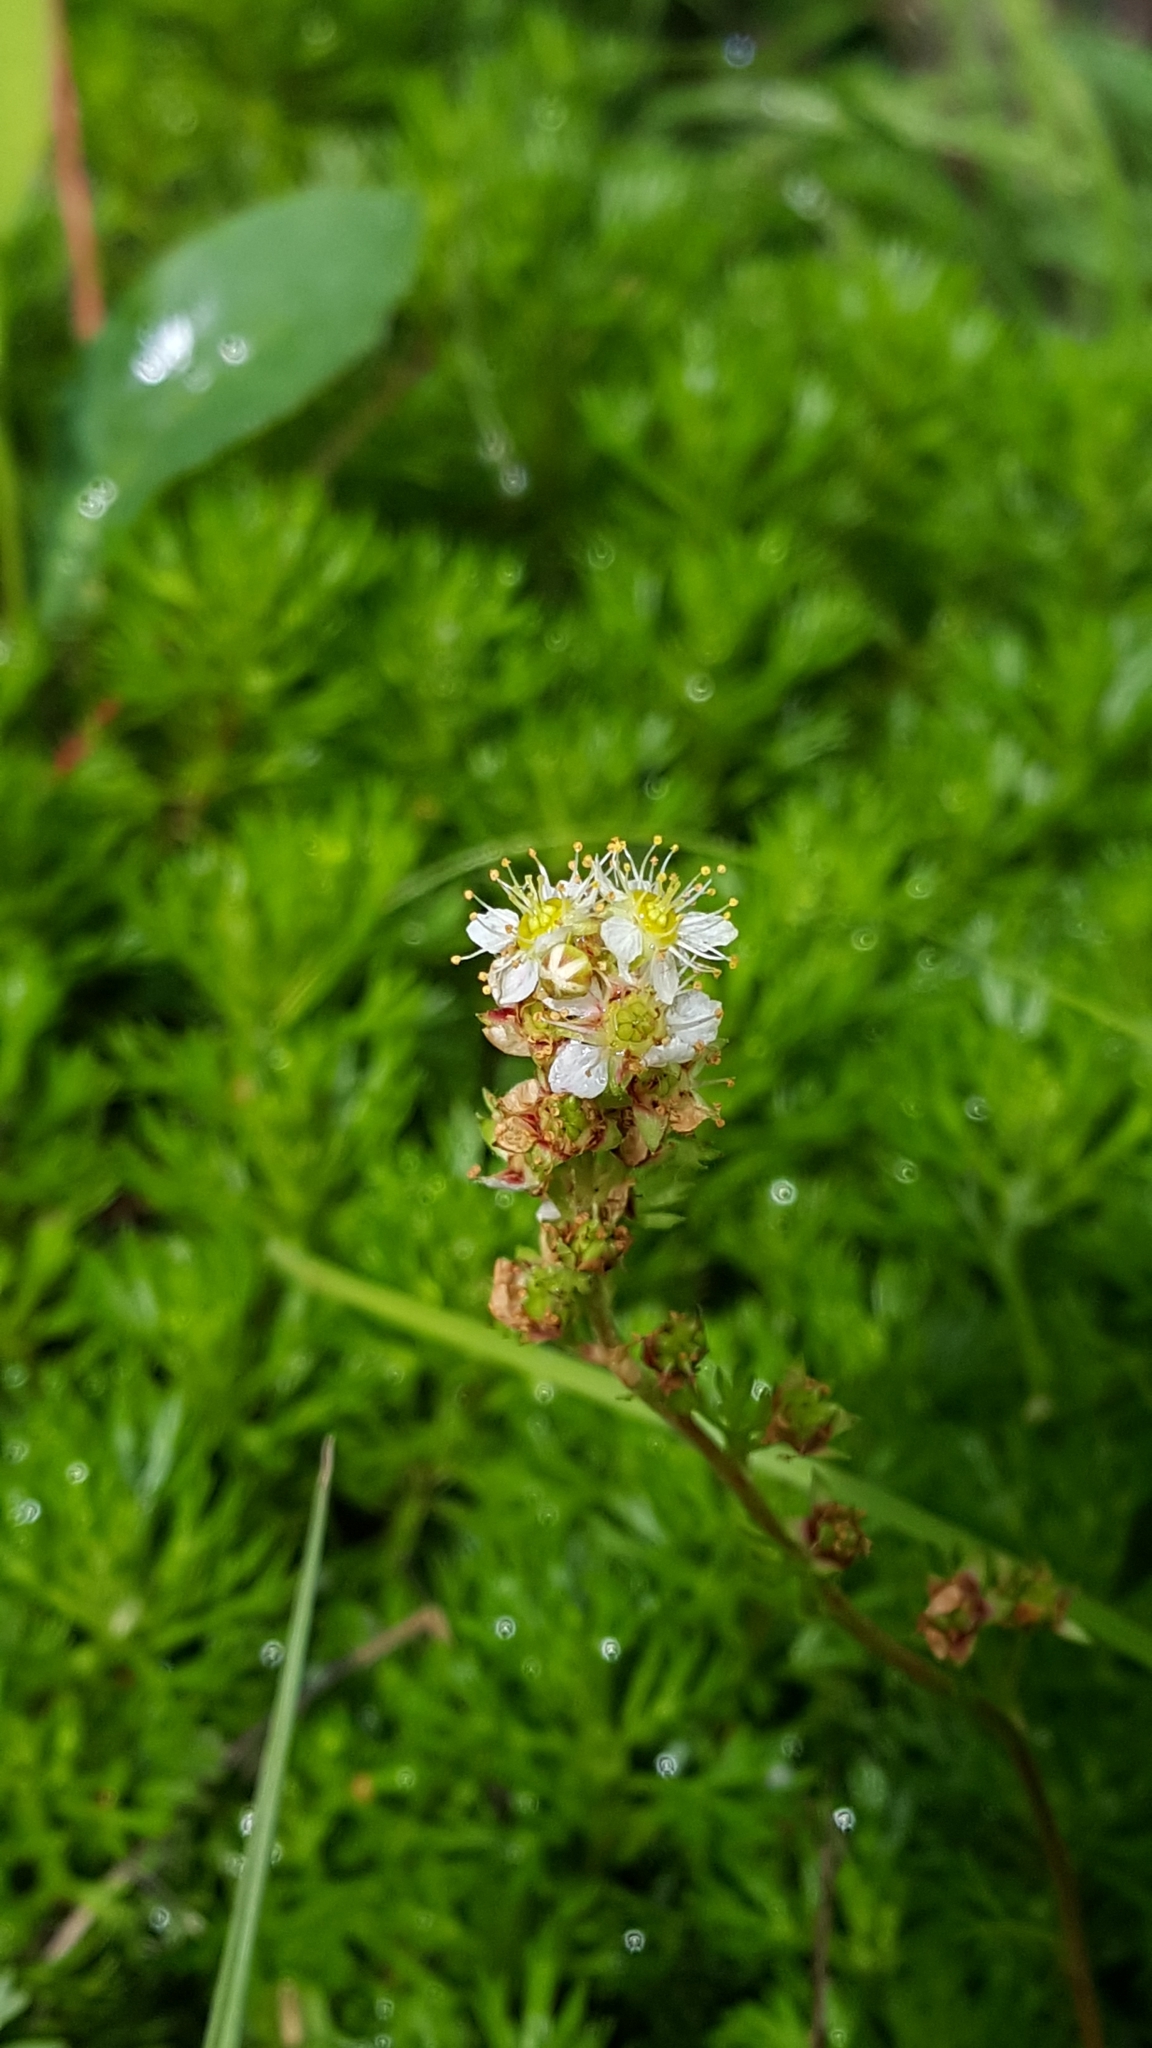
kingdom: Plantae
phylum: Tracheophyta
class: Magnoliopsida
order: Rosales
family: Rosaceae
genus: Luetkea
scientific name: Luetkea pectinata
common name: Partridgefoot
